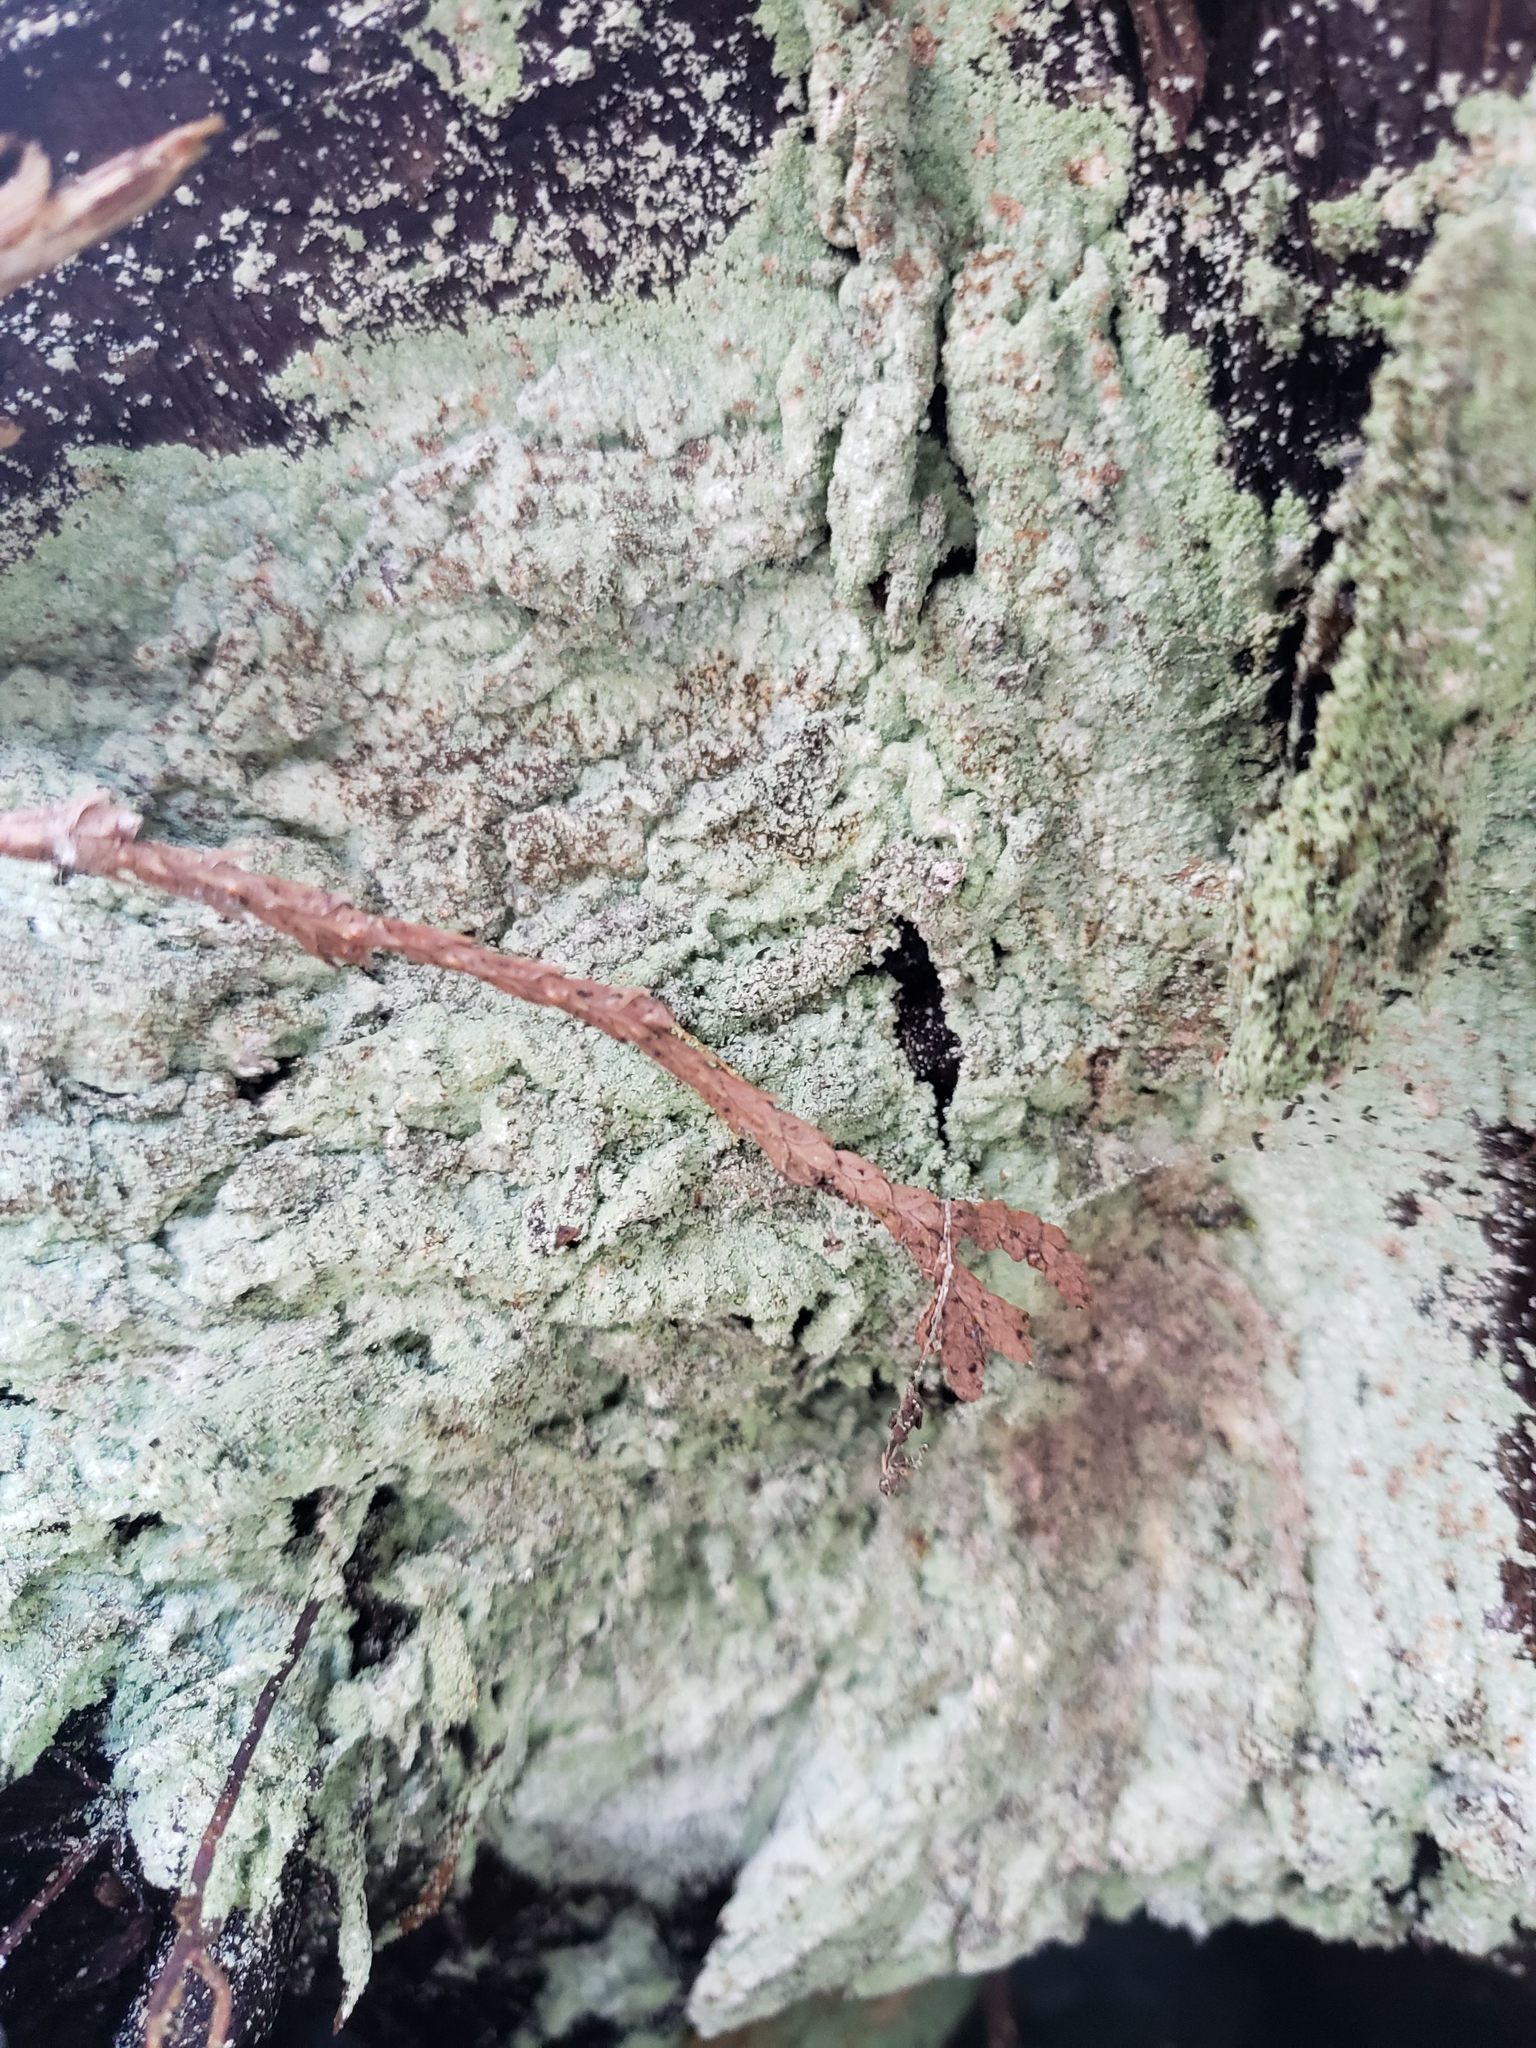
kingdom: Fungi
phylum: Ascomycota
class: Lecanoromycetes
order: Lecanorales
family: Stereocaulaceae
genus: Lepraria
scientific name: Lepraria lobificans
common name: Fluffy dust lichen
